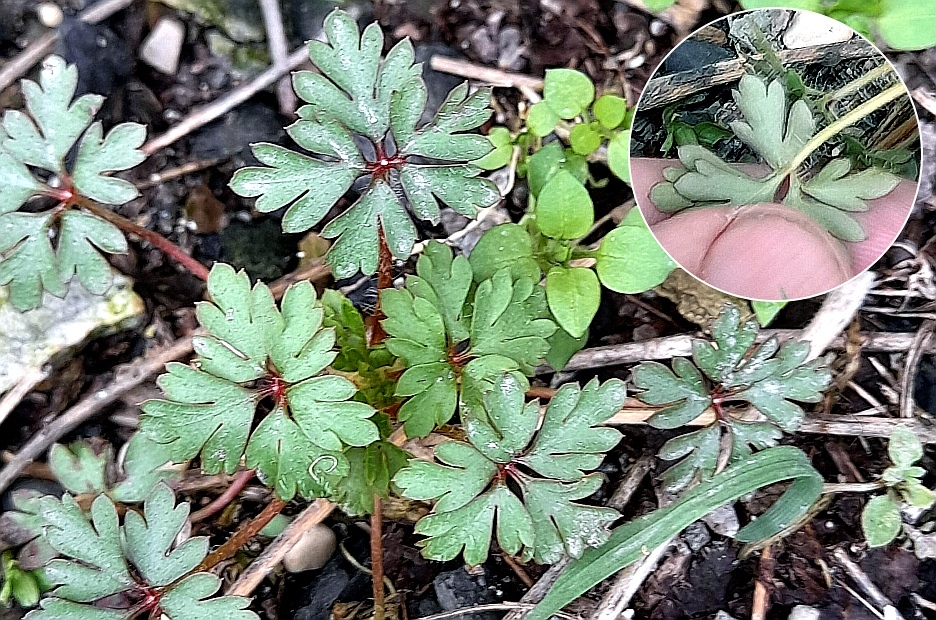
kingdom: Plantae
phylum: Tracheophyta
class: Magnoliopsida
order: Geraniales
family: Geraniaceae
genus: Geranium
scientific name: Geranium purpureum
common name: Little-robin
